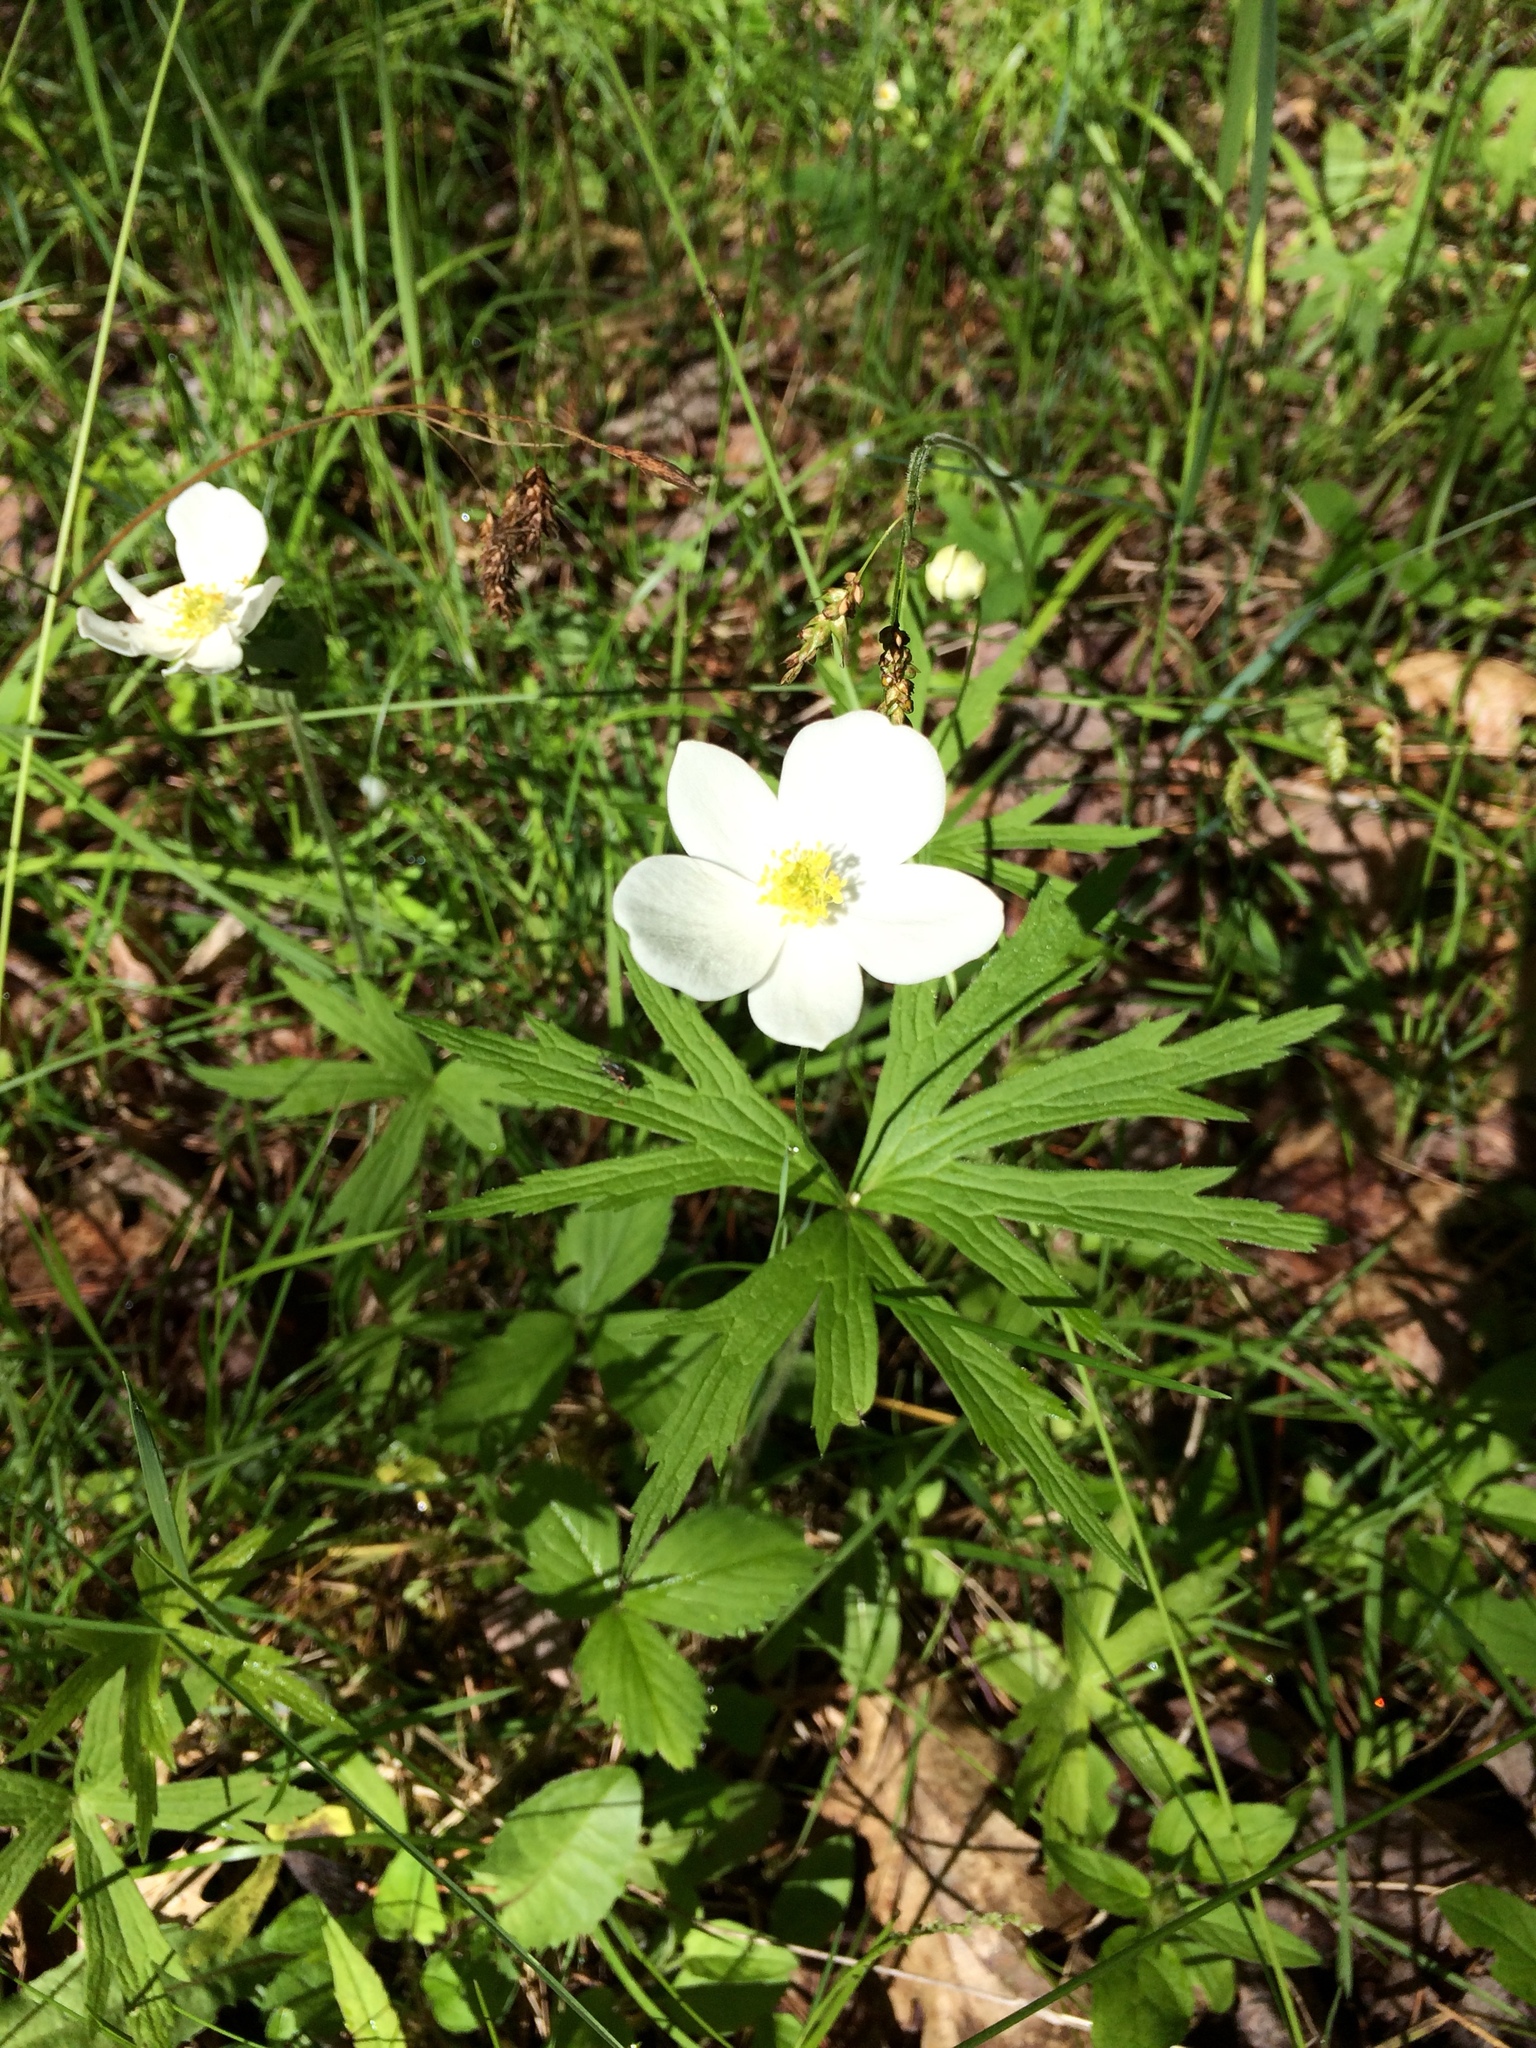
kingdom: Plantae
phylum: Tracheophyta
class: Magnoliopsida
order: Ranunculales
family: Ranunculaceae
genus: Anemonastrum
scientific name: Anemonastrum canadense
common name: Canada anemone
